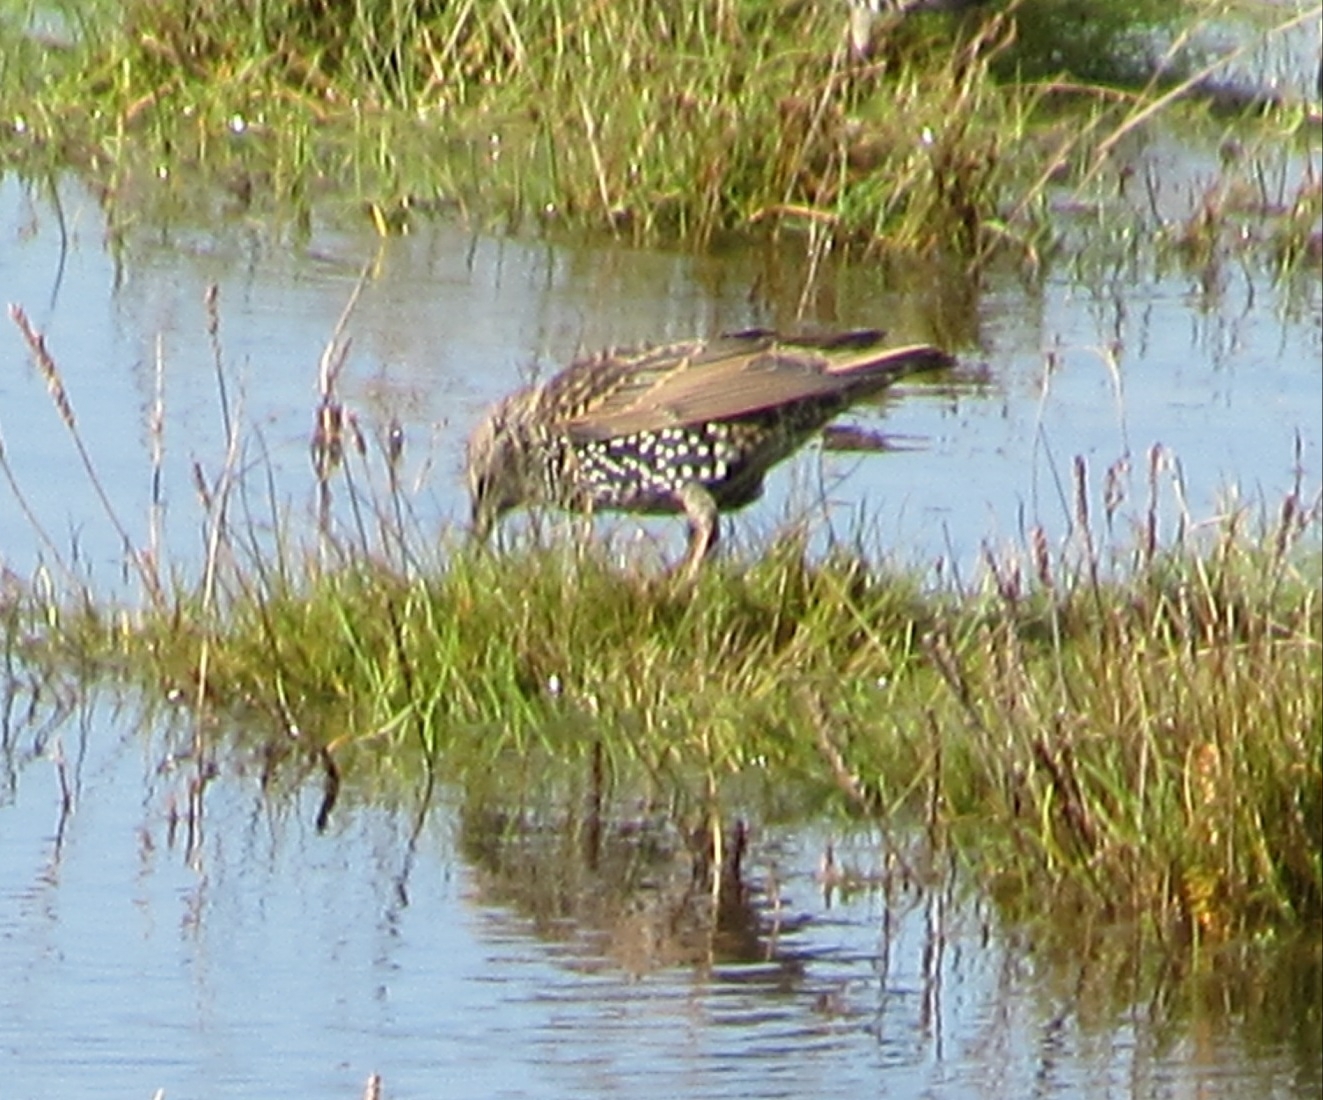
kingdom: Animalia
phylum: Chordata
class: Aves
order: Passeriformes
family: Sturnidae
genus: Sturnus
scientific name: Sturnus vulgaris
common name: Common starling
